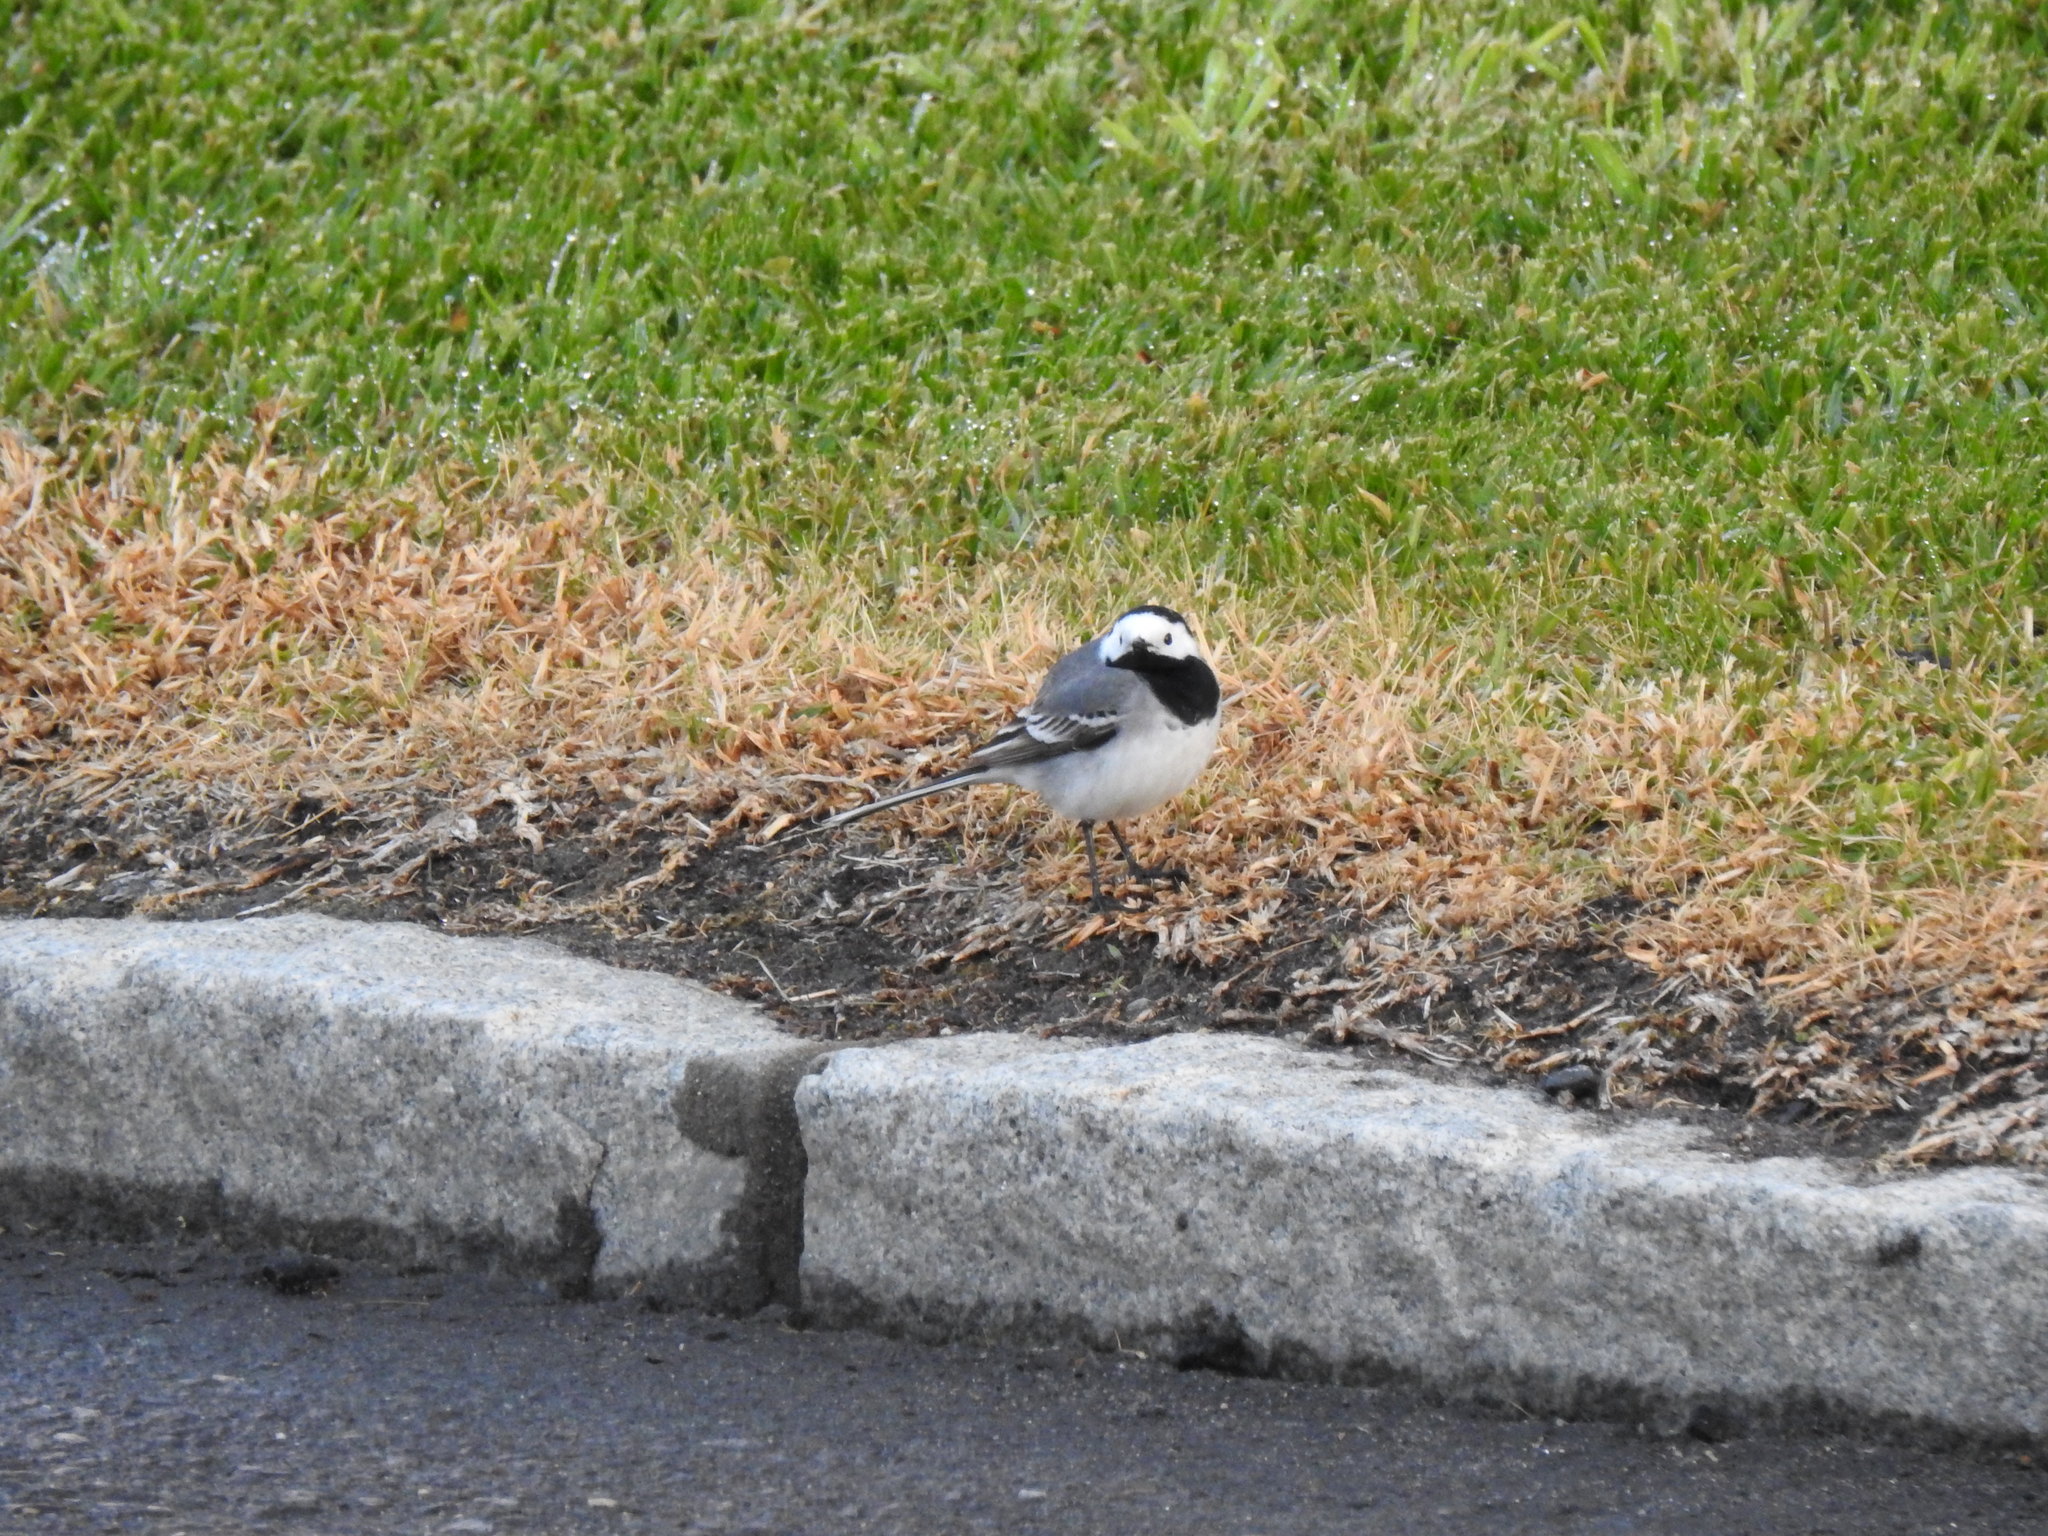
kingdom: Animalia
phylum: Chordata
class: Aves
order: Passeriformes
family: Motacillidae
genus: Motacilla
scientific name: Motacilla alba
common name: White wagtail
